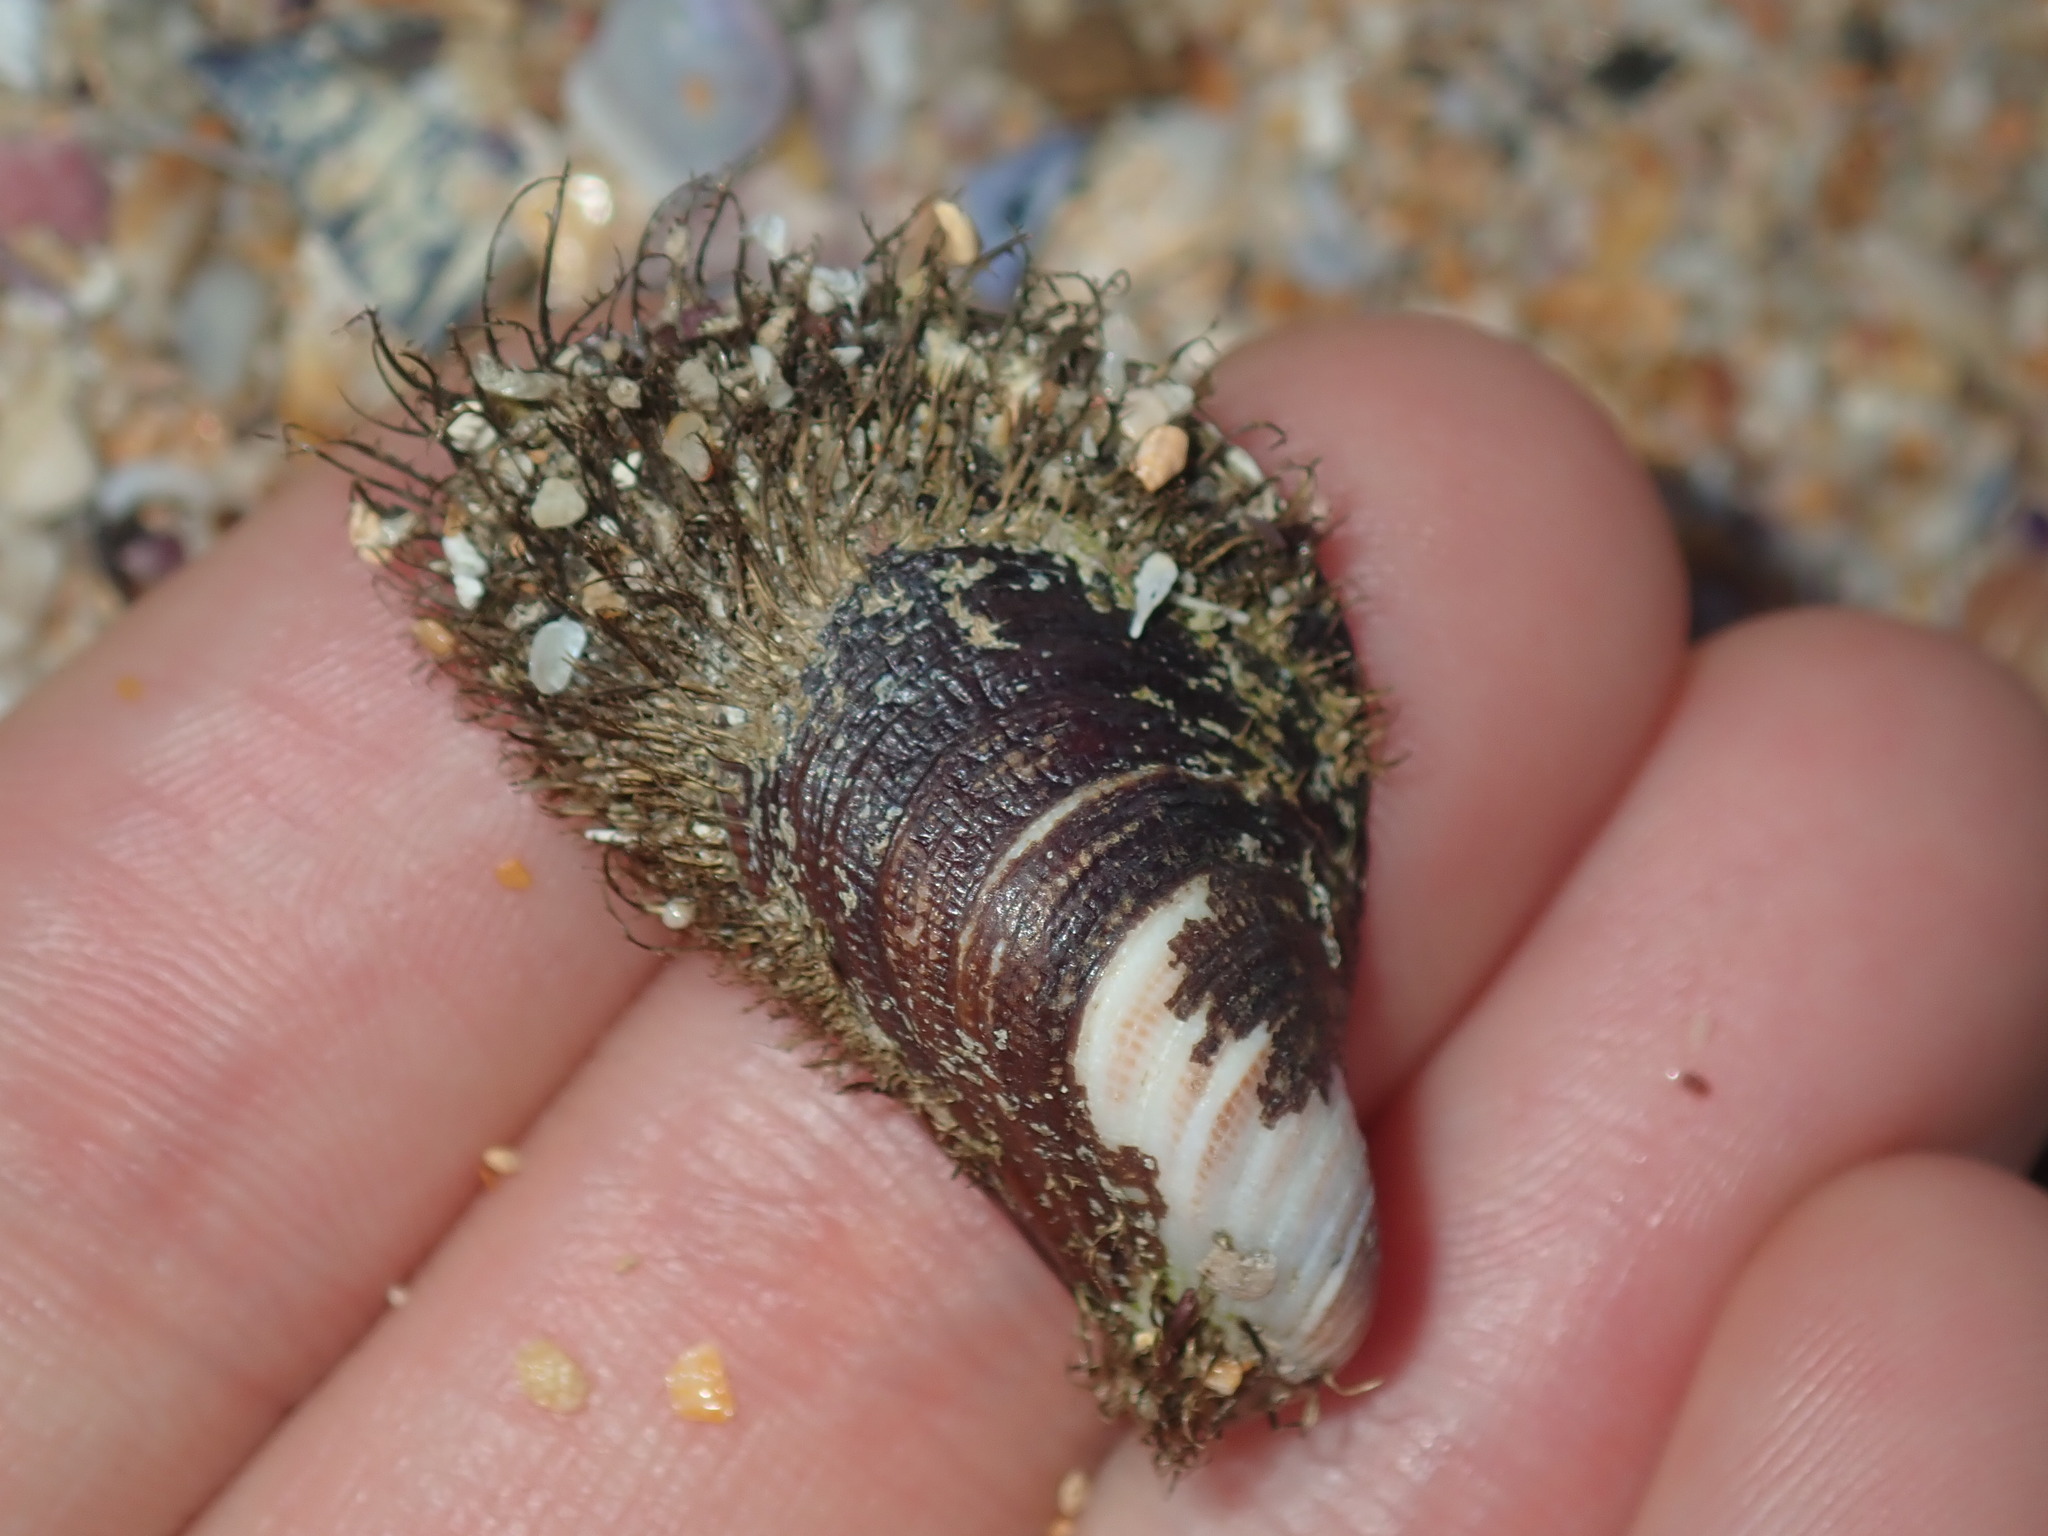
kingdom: Animalia
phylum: Mollusca
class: Bivalvia
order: Mytilida
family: Mytilidae
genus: Trichomya
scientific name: Trichomya hirsuta
